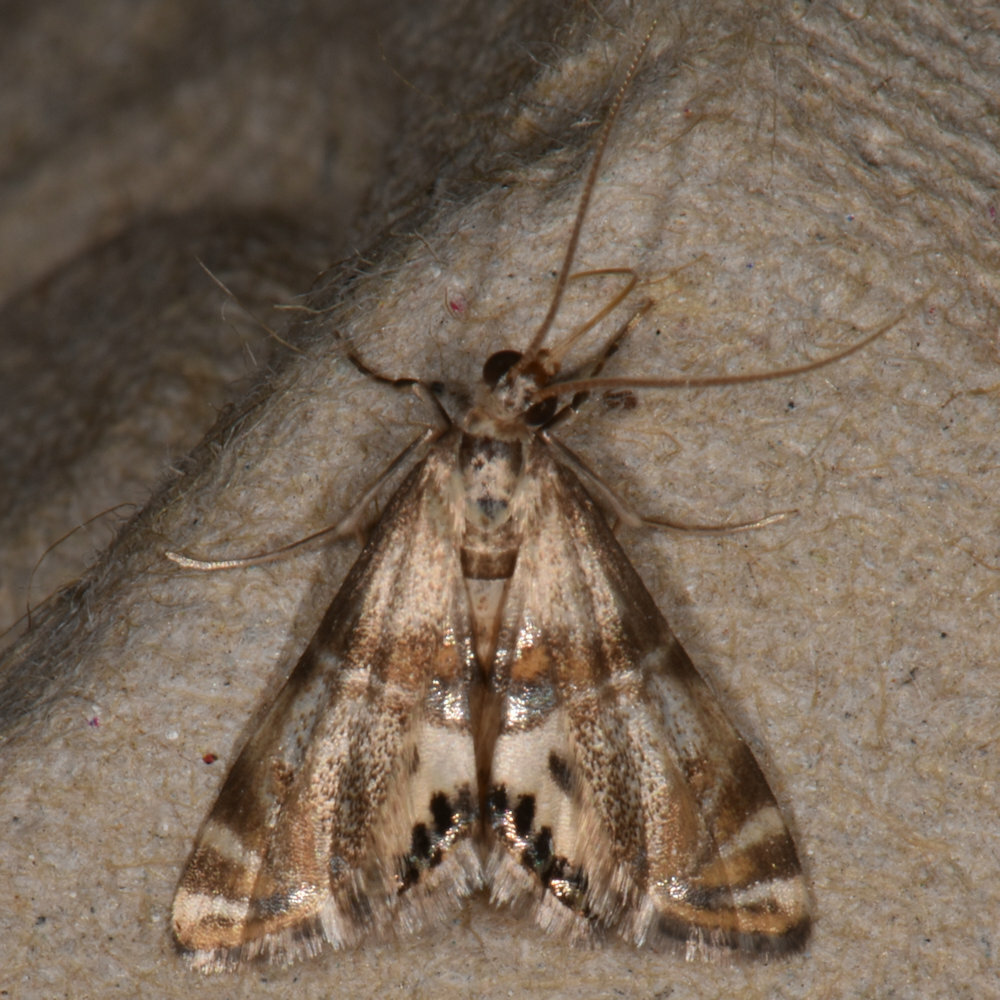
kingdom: Animalia
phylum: Arthropoda
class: Insecta
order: Lepidoptera
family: Crambidae
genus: Petrophila
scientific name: Petrophila bifascialis
